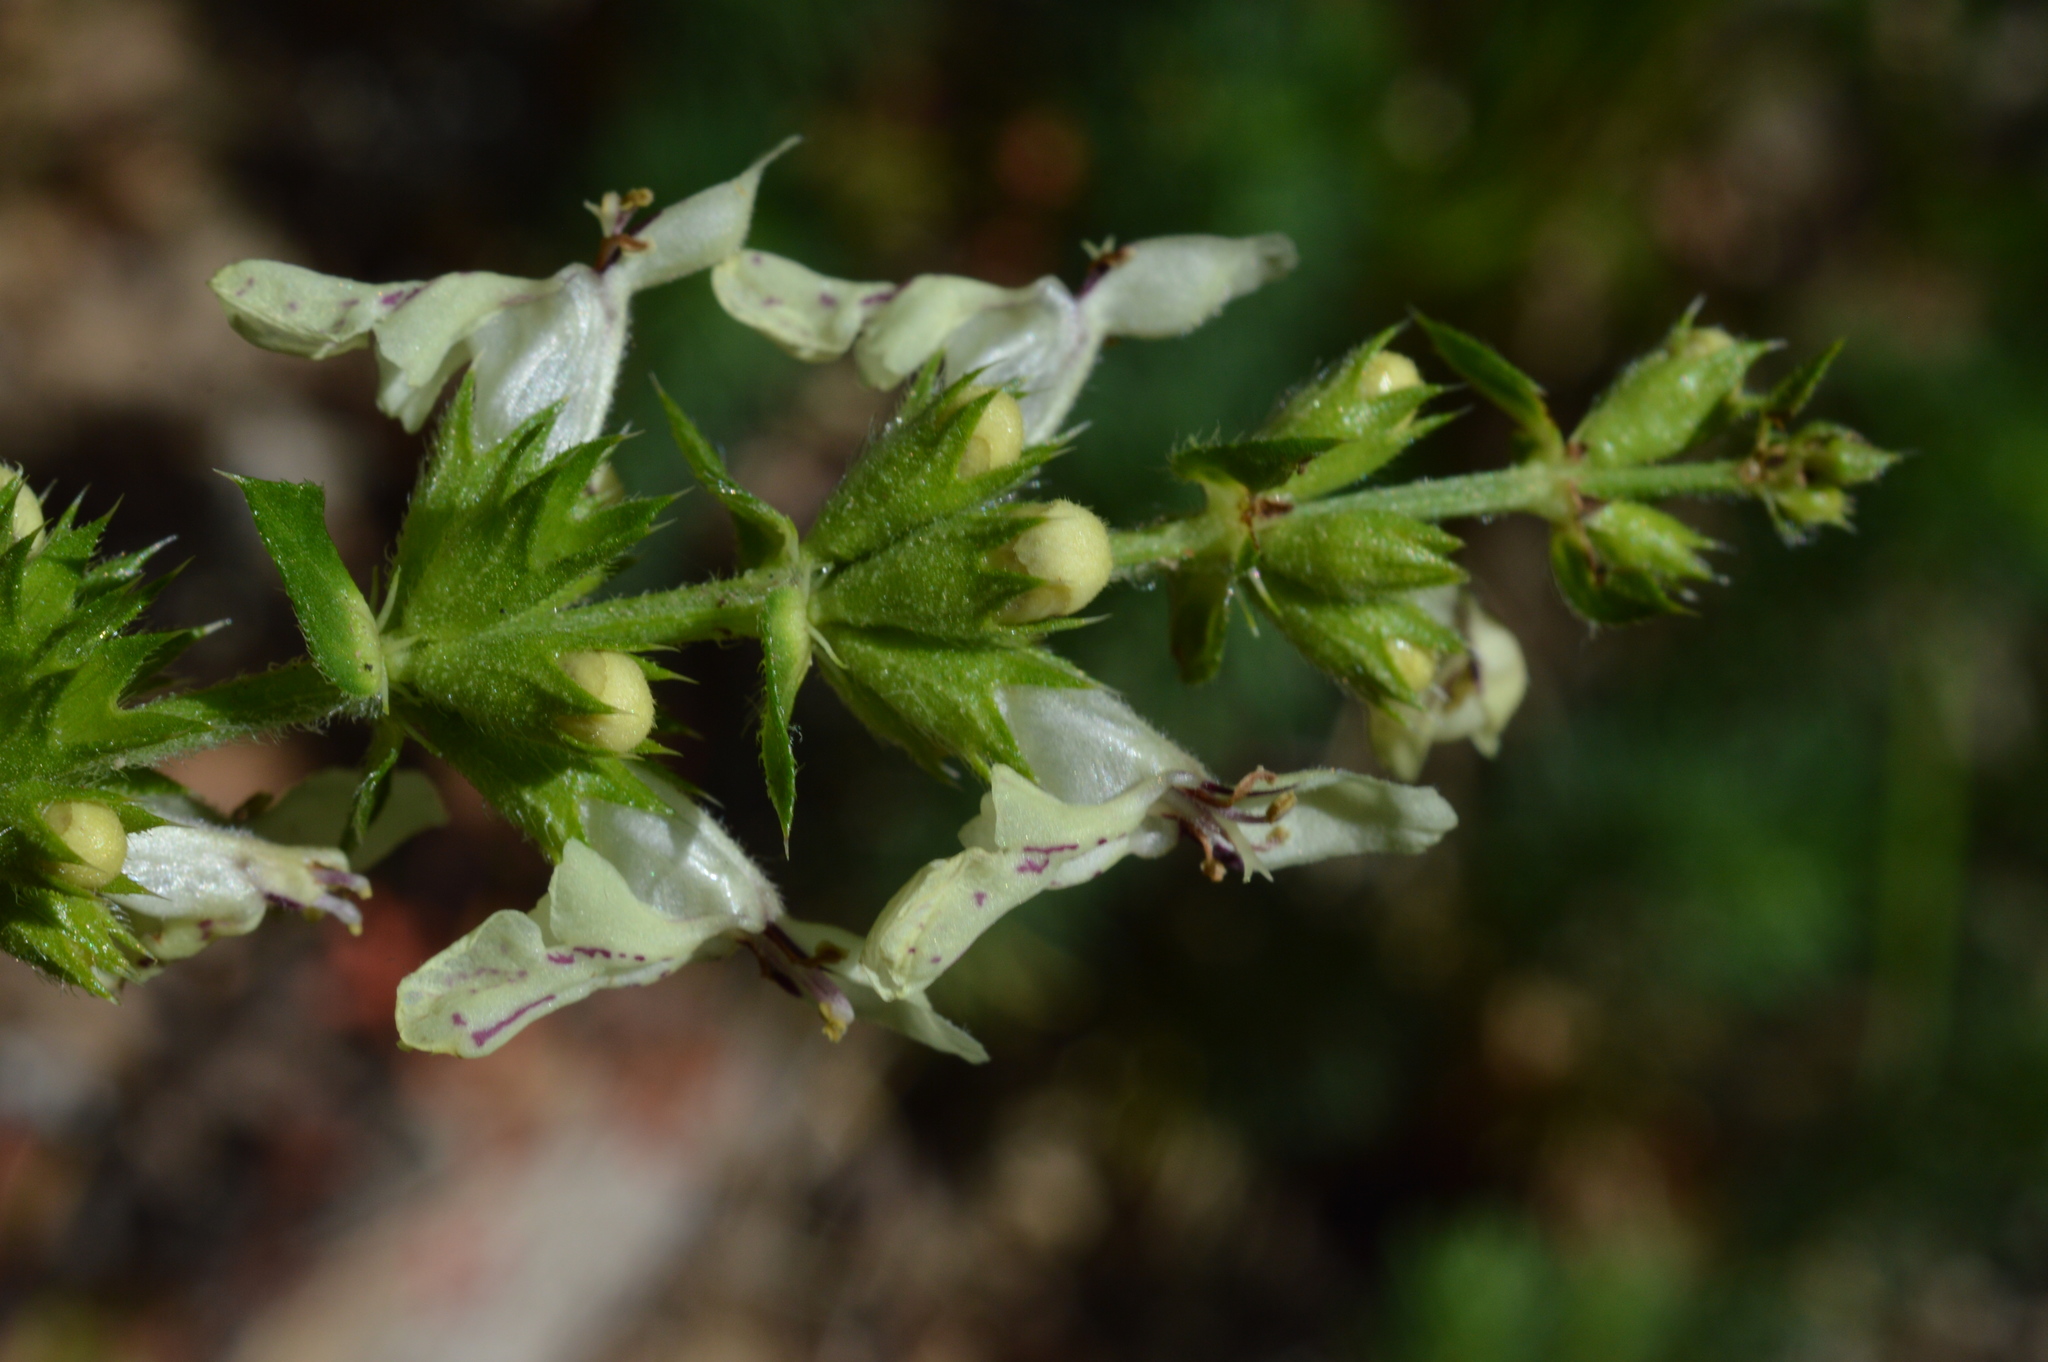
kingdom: Plantae
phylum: Tracheophyta
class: Magnoliopsida
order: Lamiales
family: Lamiaceae
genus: Stachys
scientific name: Stachys recta
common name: Perennial yellow-woundwort
